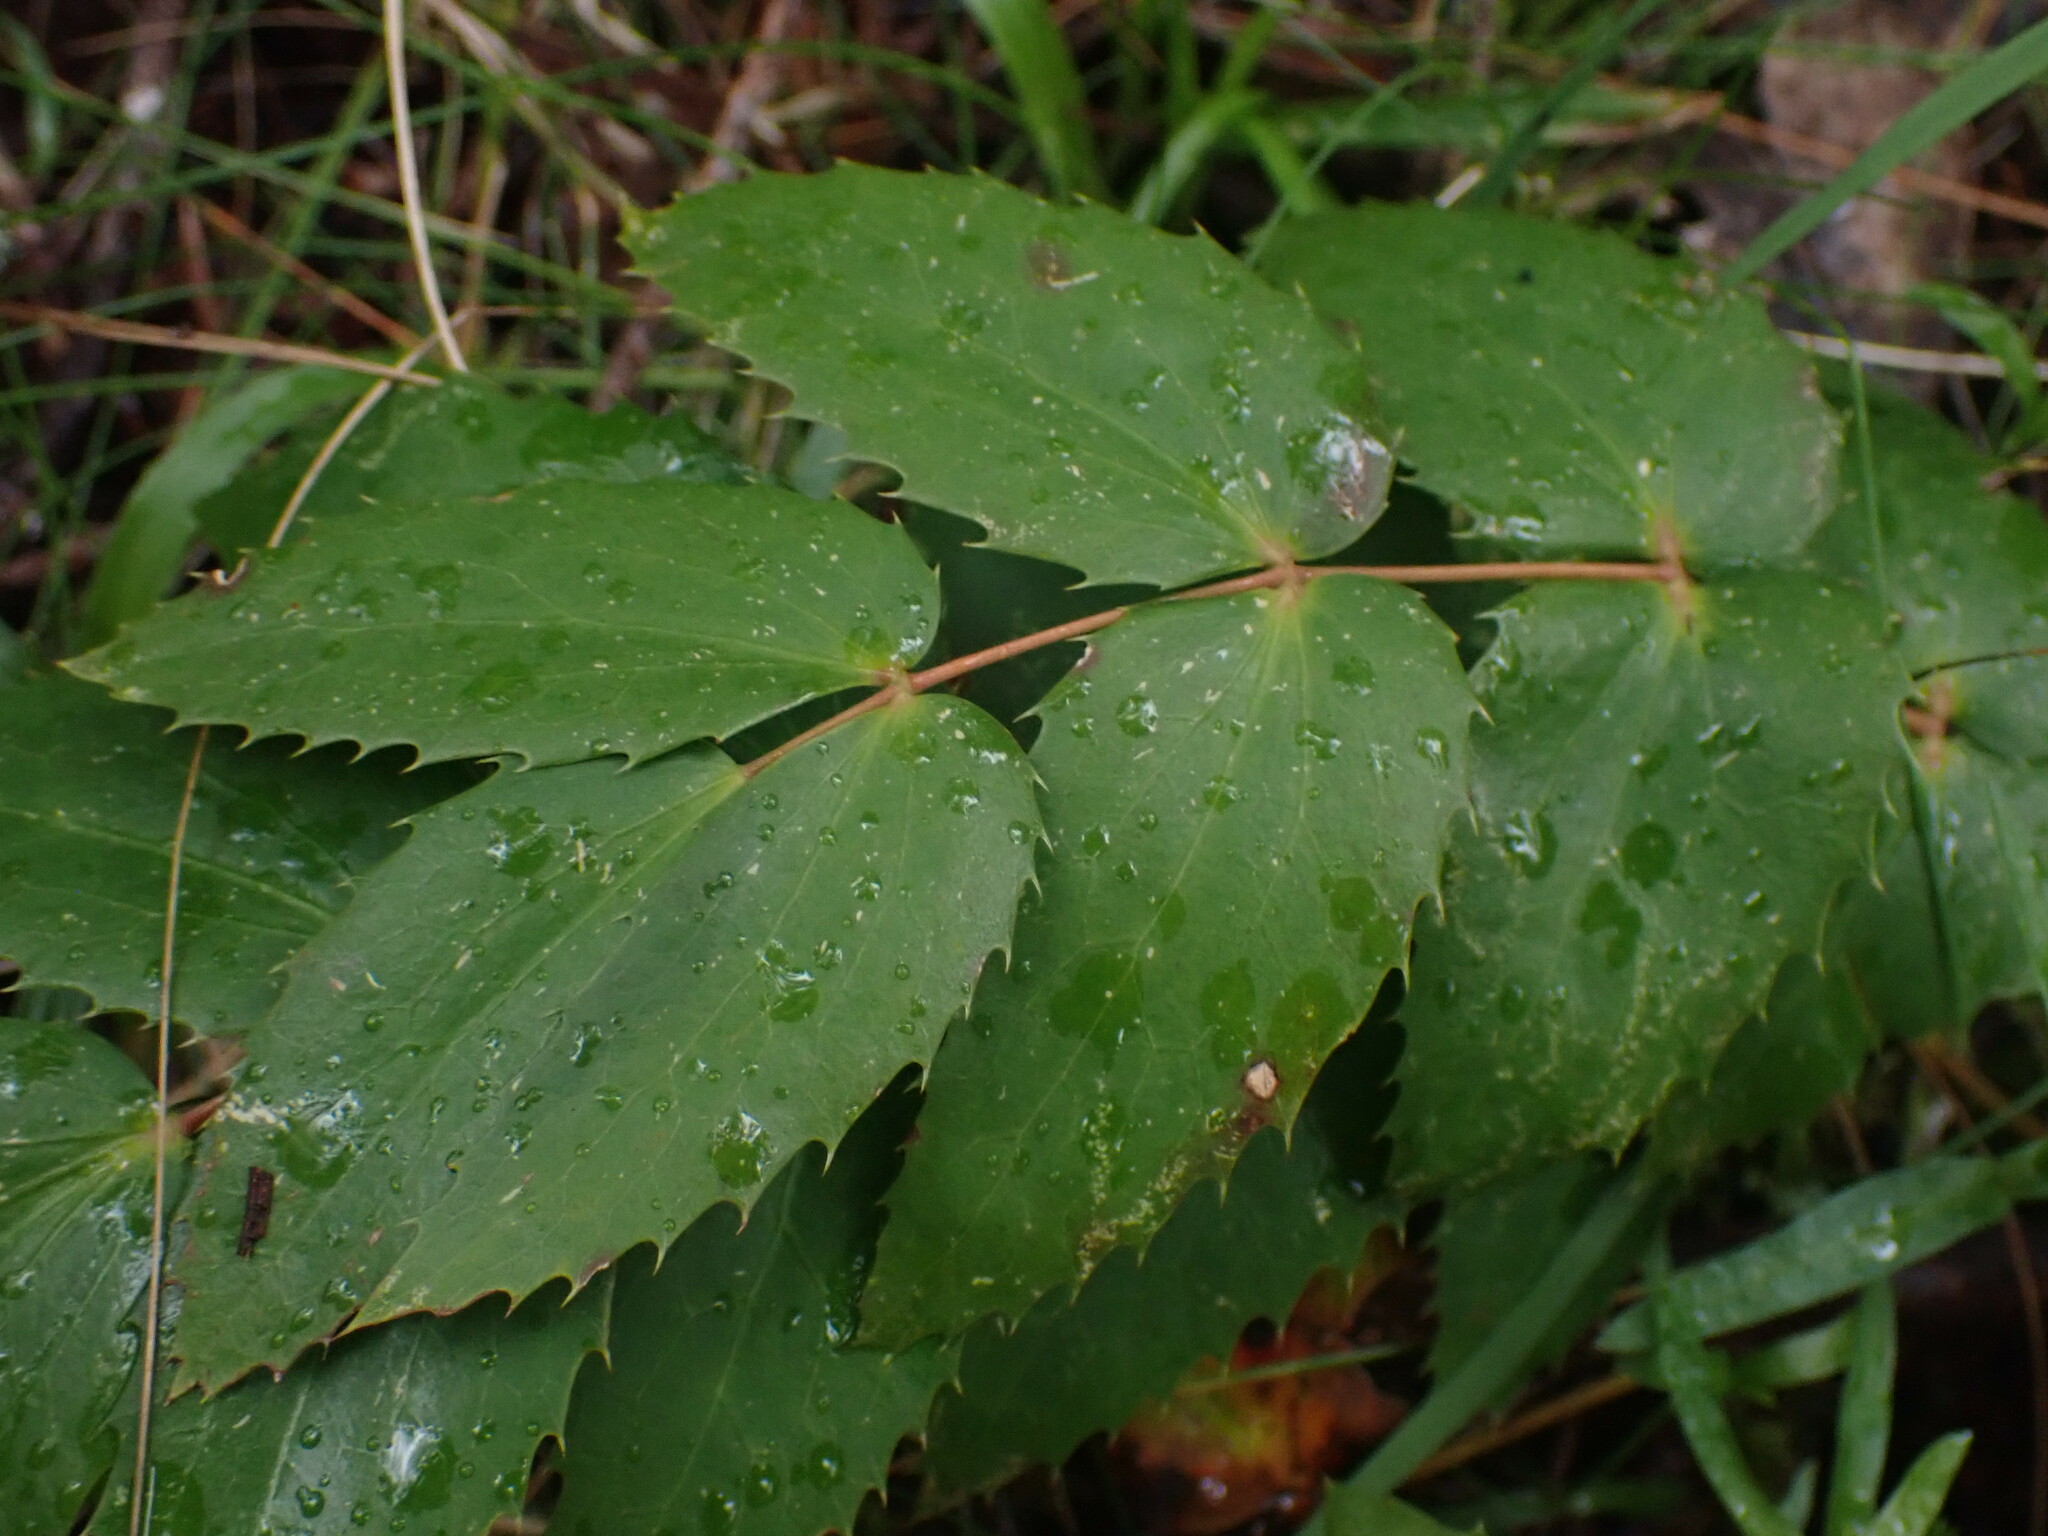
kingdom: Plantae
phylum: Tracheophyta
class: Magnoliopsida
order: Ranunculales
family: Berberidaceae
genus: Mahonia
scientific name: Mahonia nervosa
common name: Cascade oregon-grape
